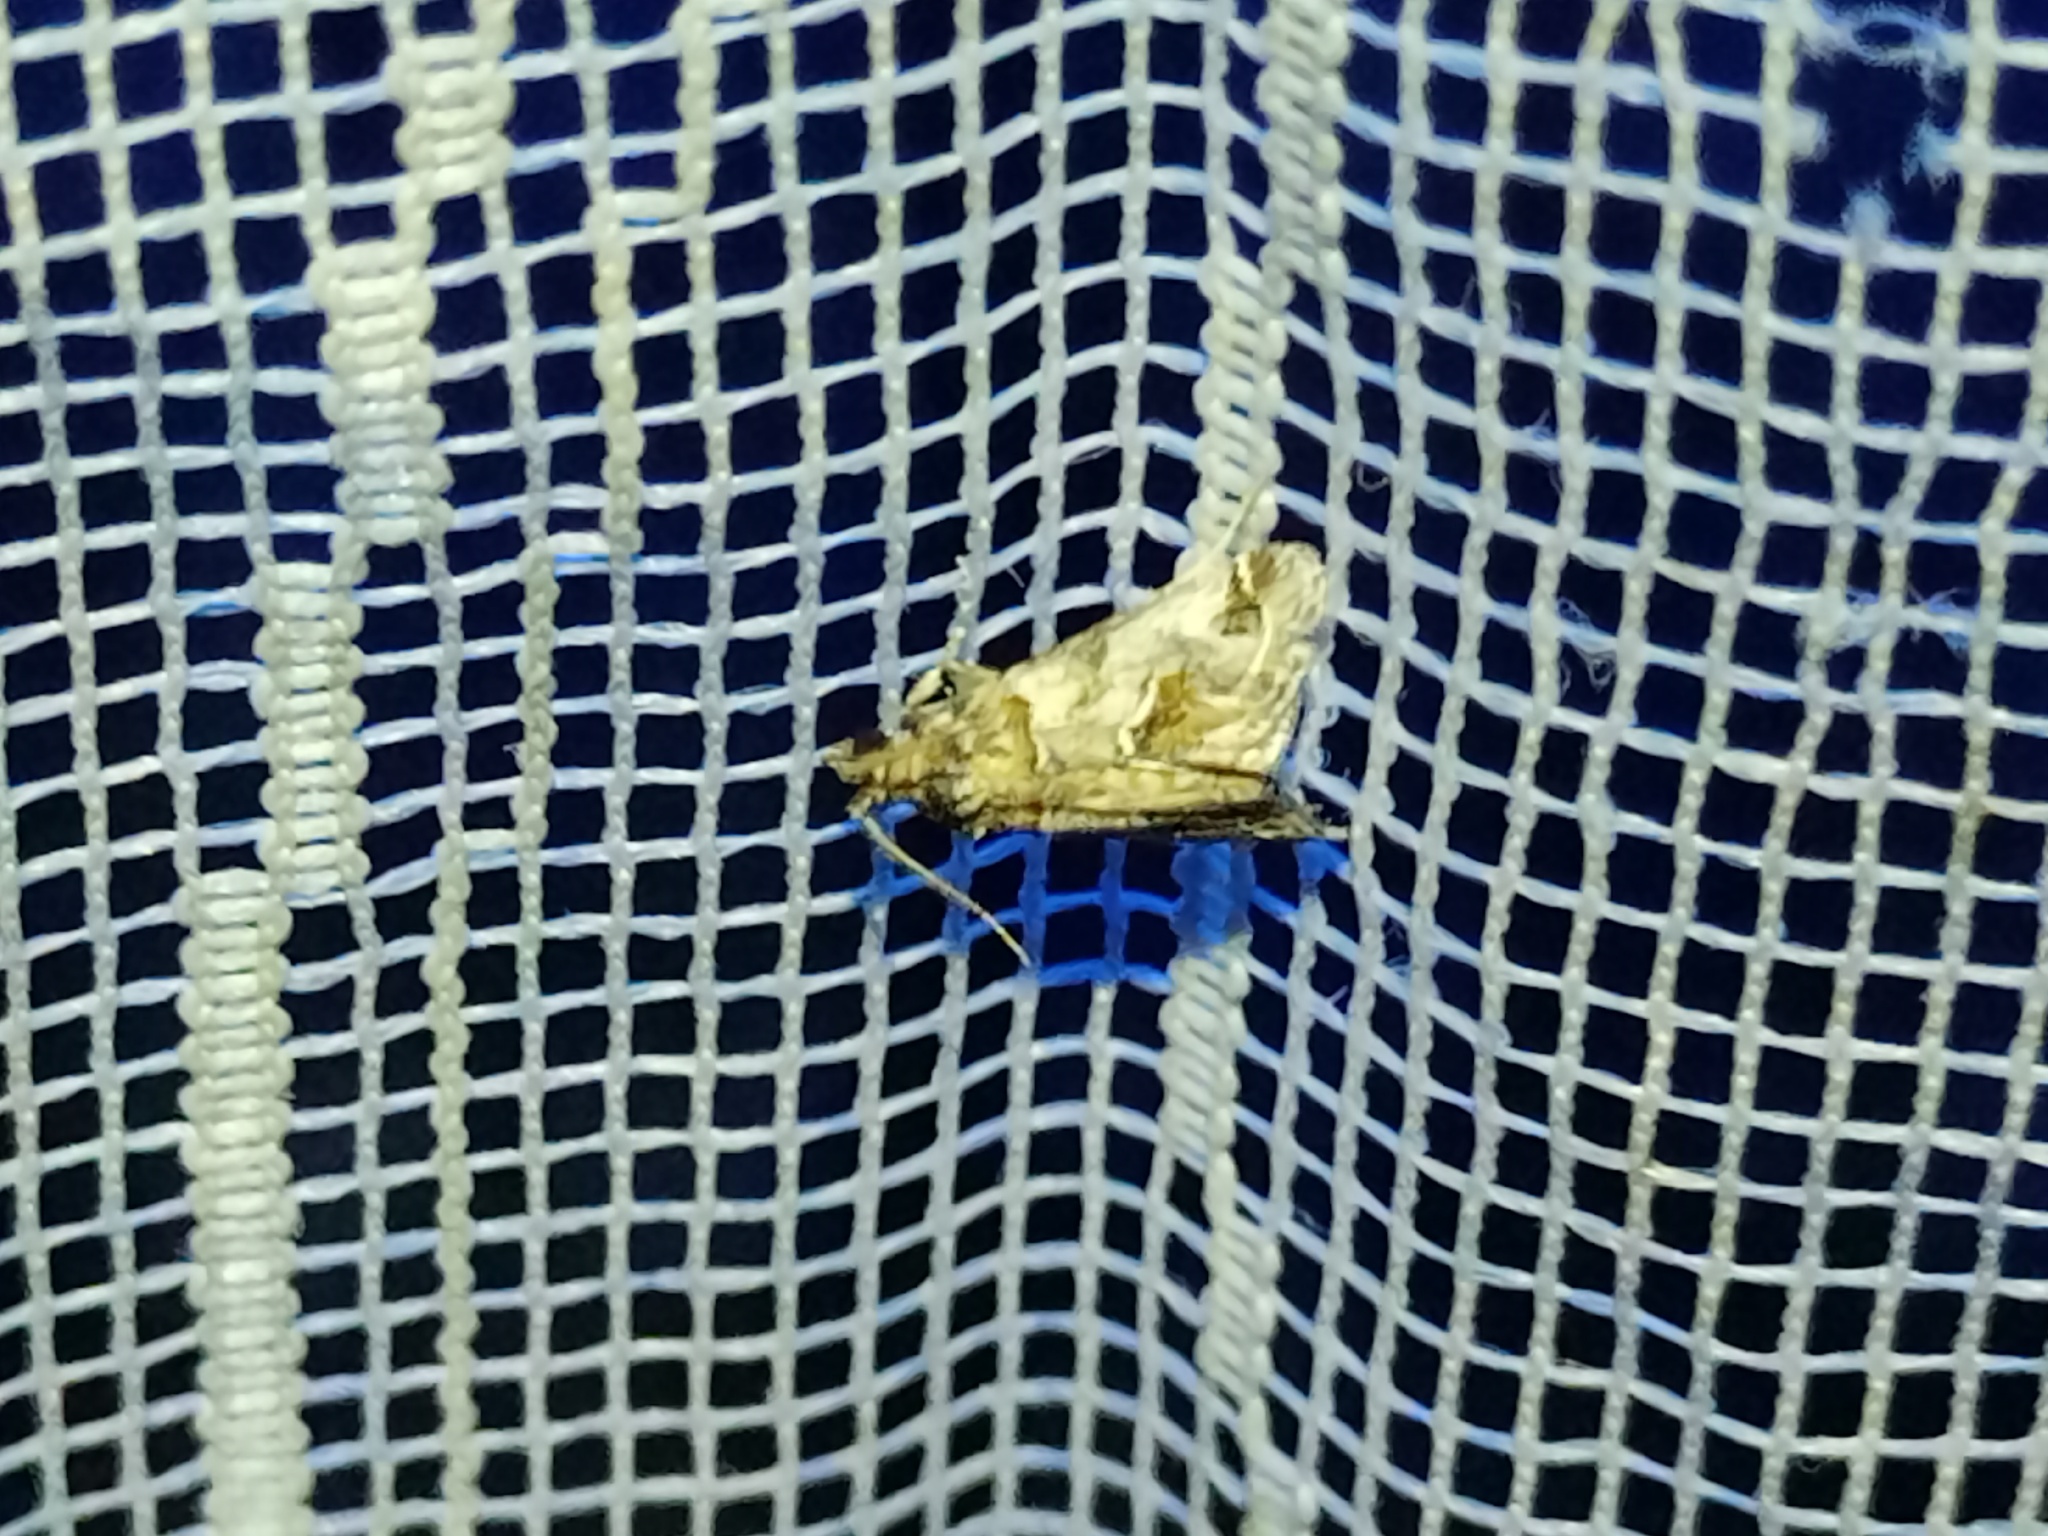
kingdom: Animalia
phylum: Arthropoda
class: Insecta
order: Lepidoptera
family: Pyralidae
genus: Hypotia
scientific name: Hypotia infulalis
